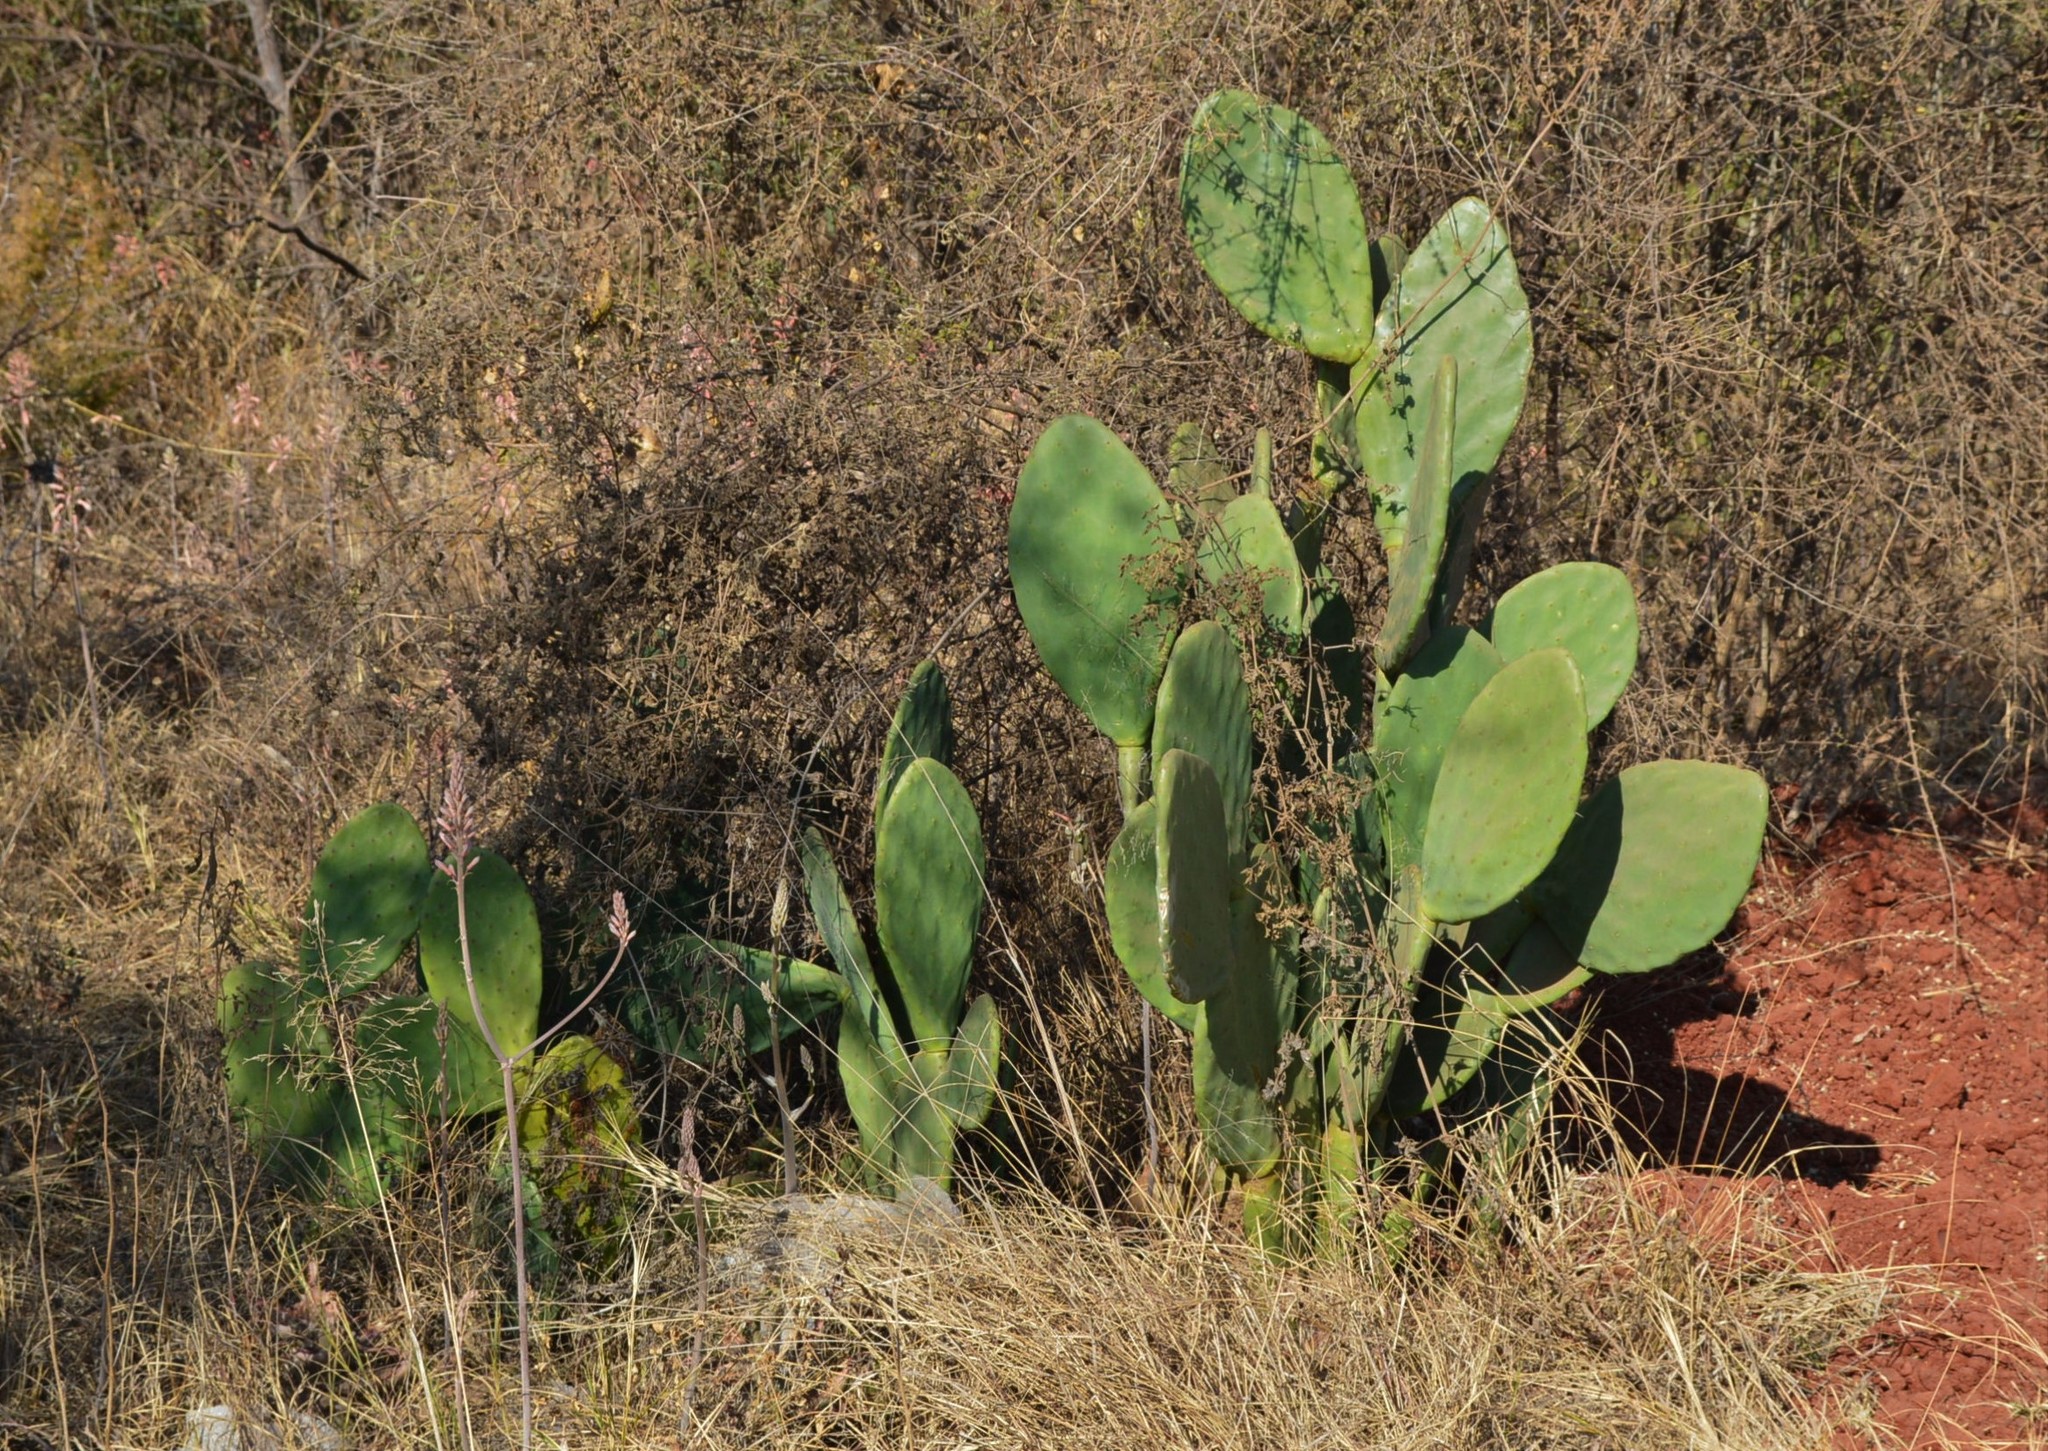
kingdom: Plantae
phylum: Tracheophyta
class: Magnoliopsida
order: Caryophyllales
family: Cactaceae
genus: Opuntia
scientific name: Opuntia ficus-indica
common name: Barbary fig
